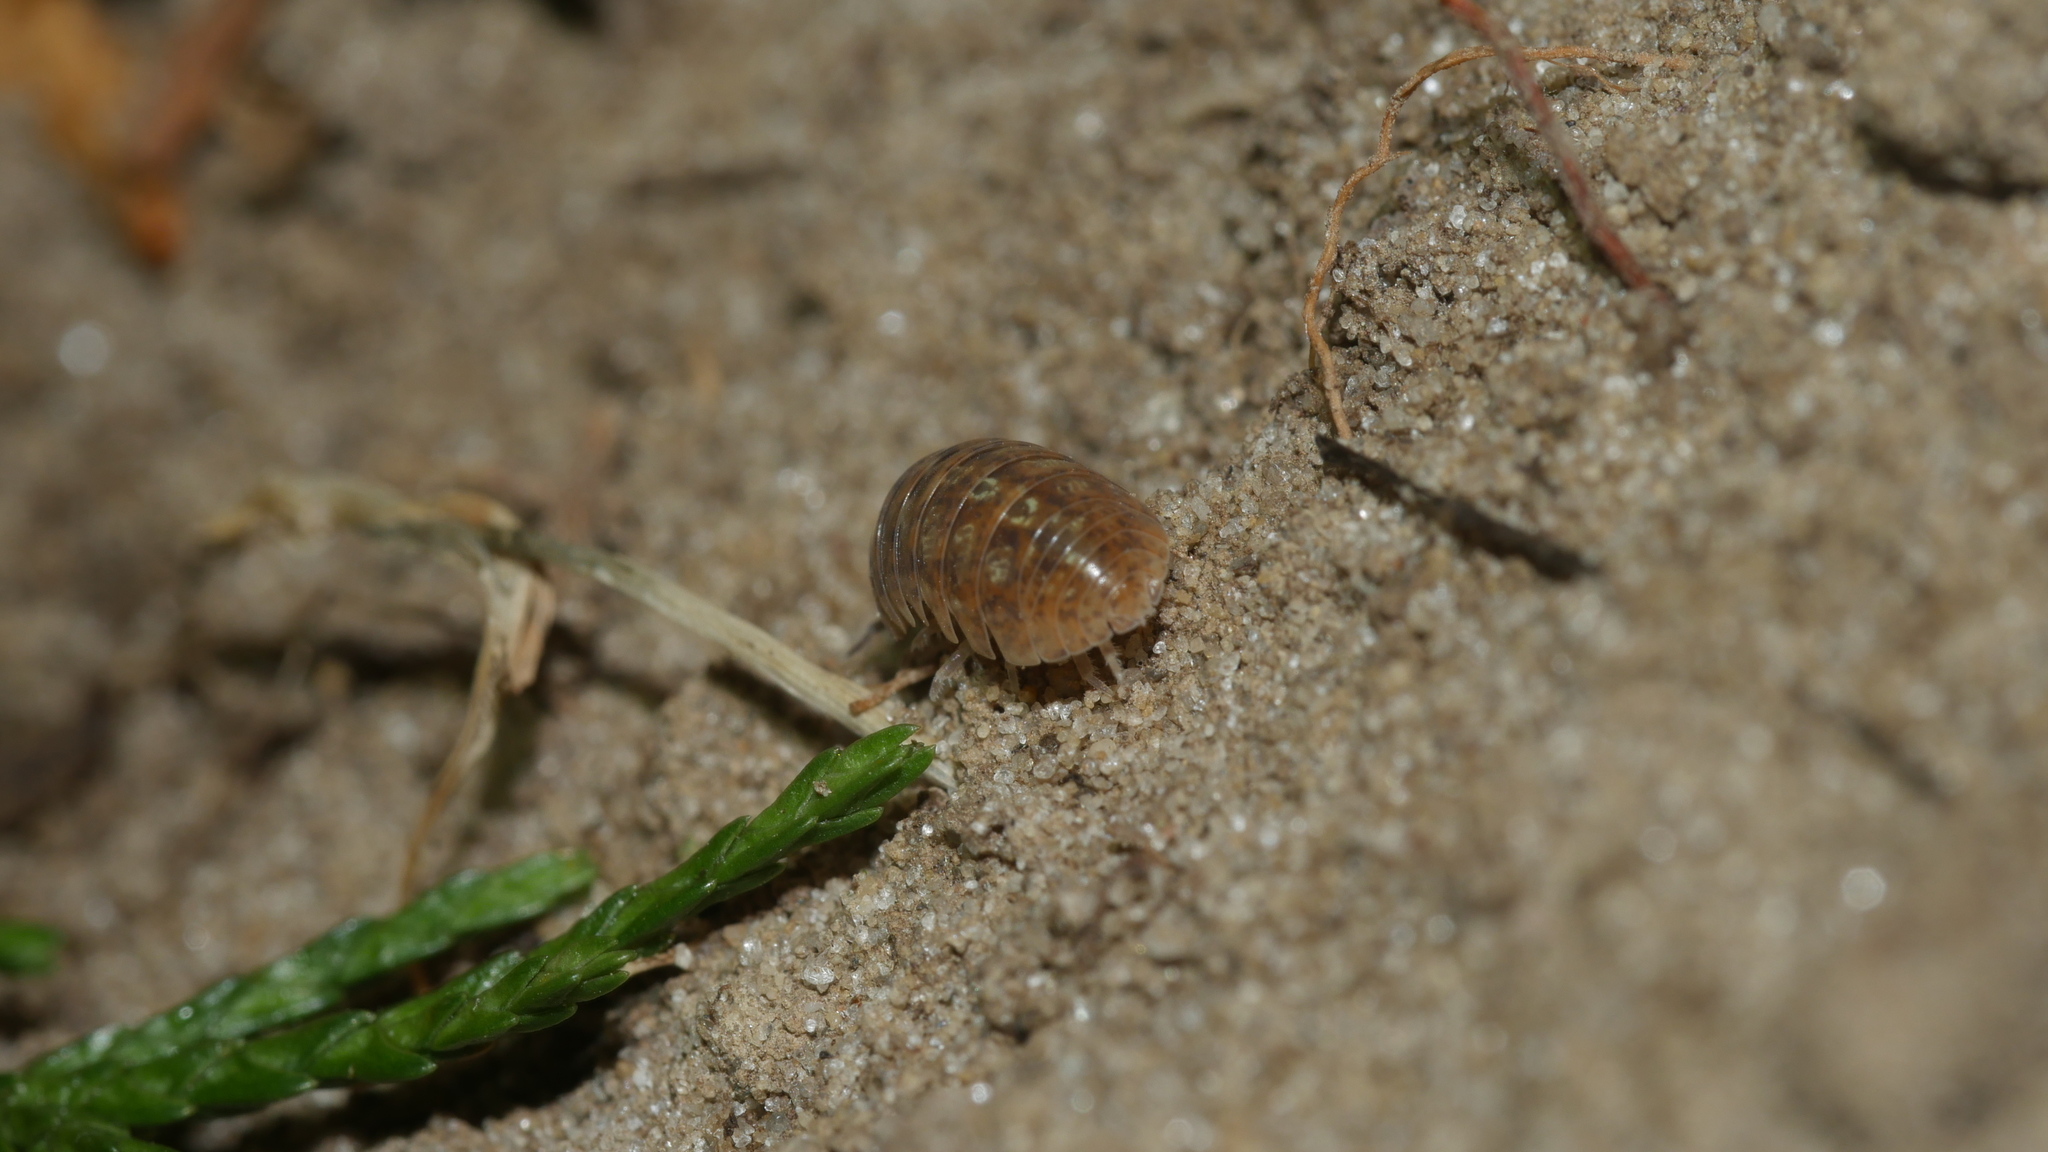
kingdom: Animalia
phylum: Arthropoda
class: Malacostraca
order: Isopoda
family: Armadillidiidae
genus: Armadillidium
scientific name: Armadillidium vulgare
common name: Common pill woodlouse
